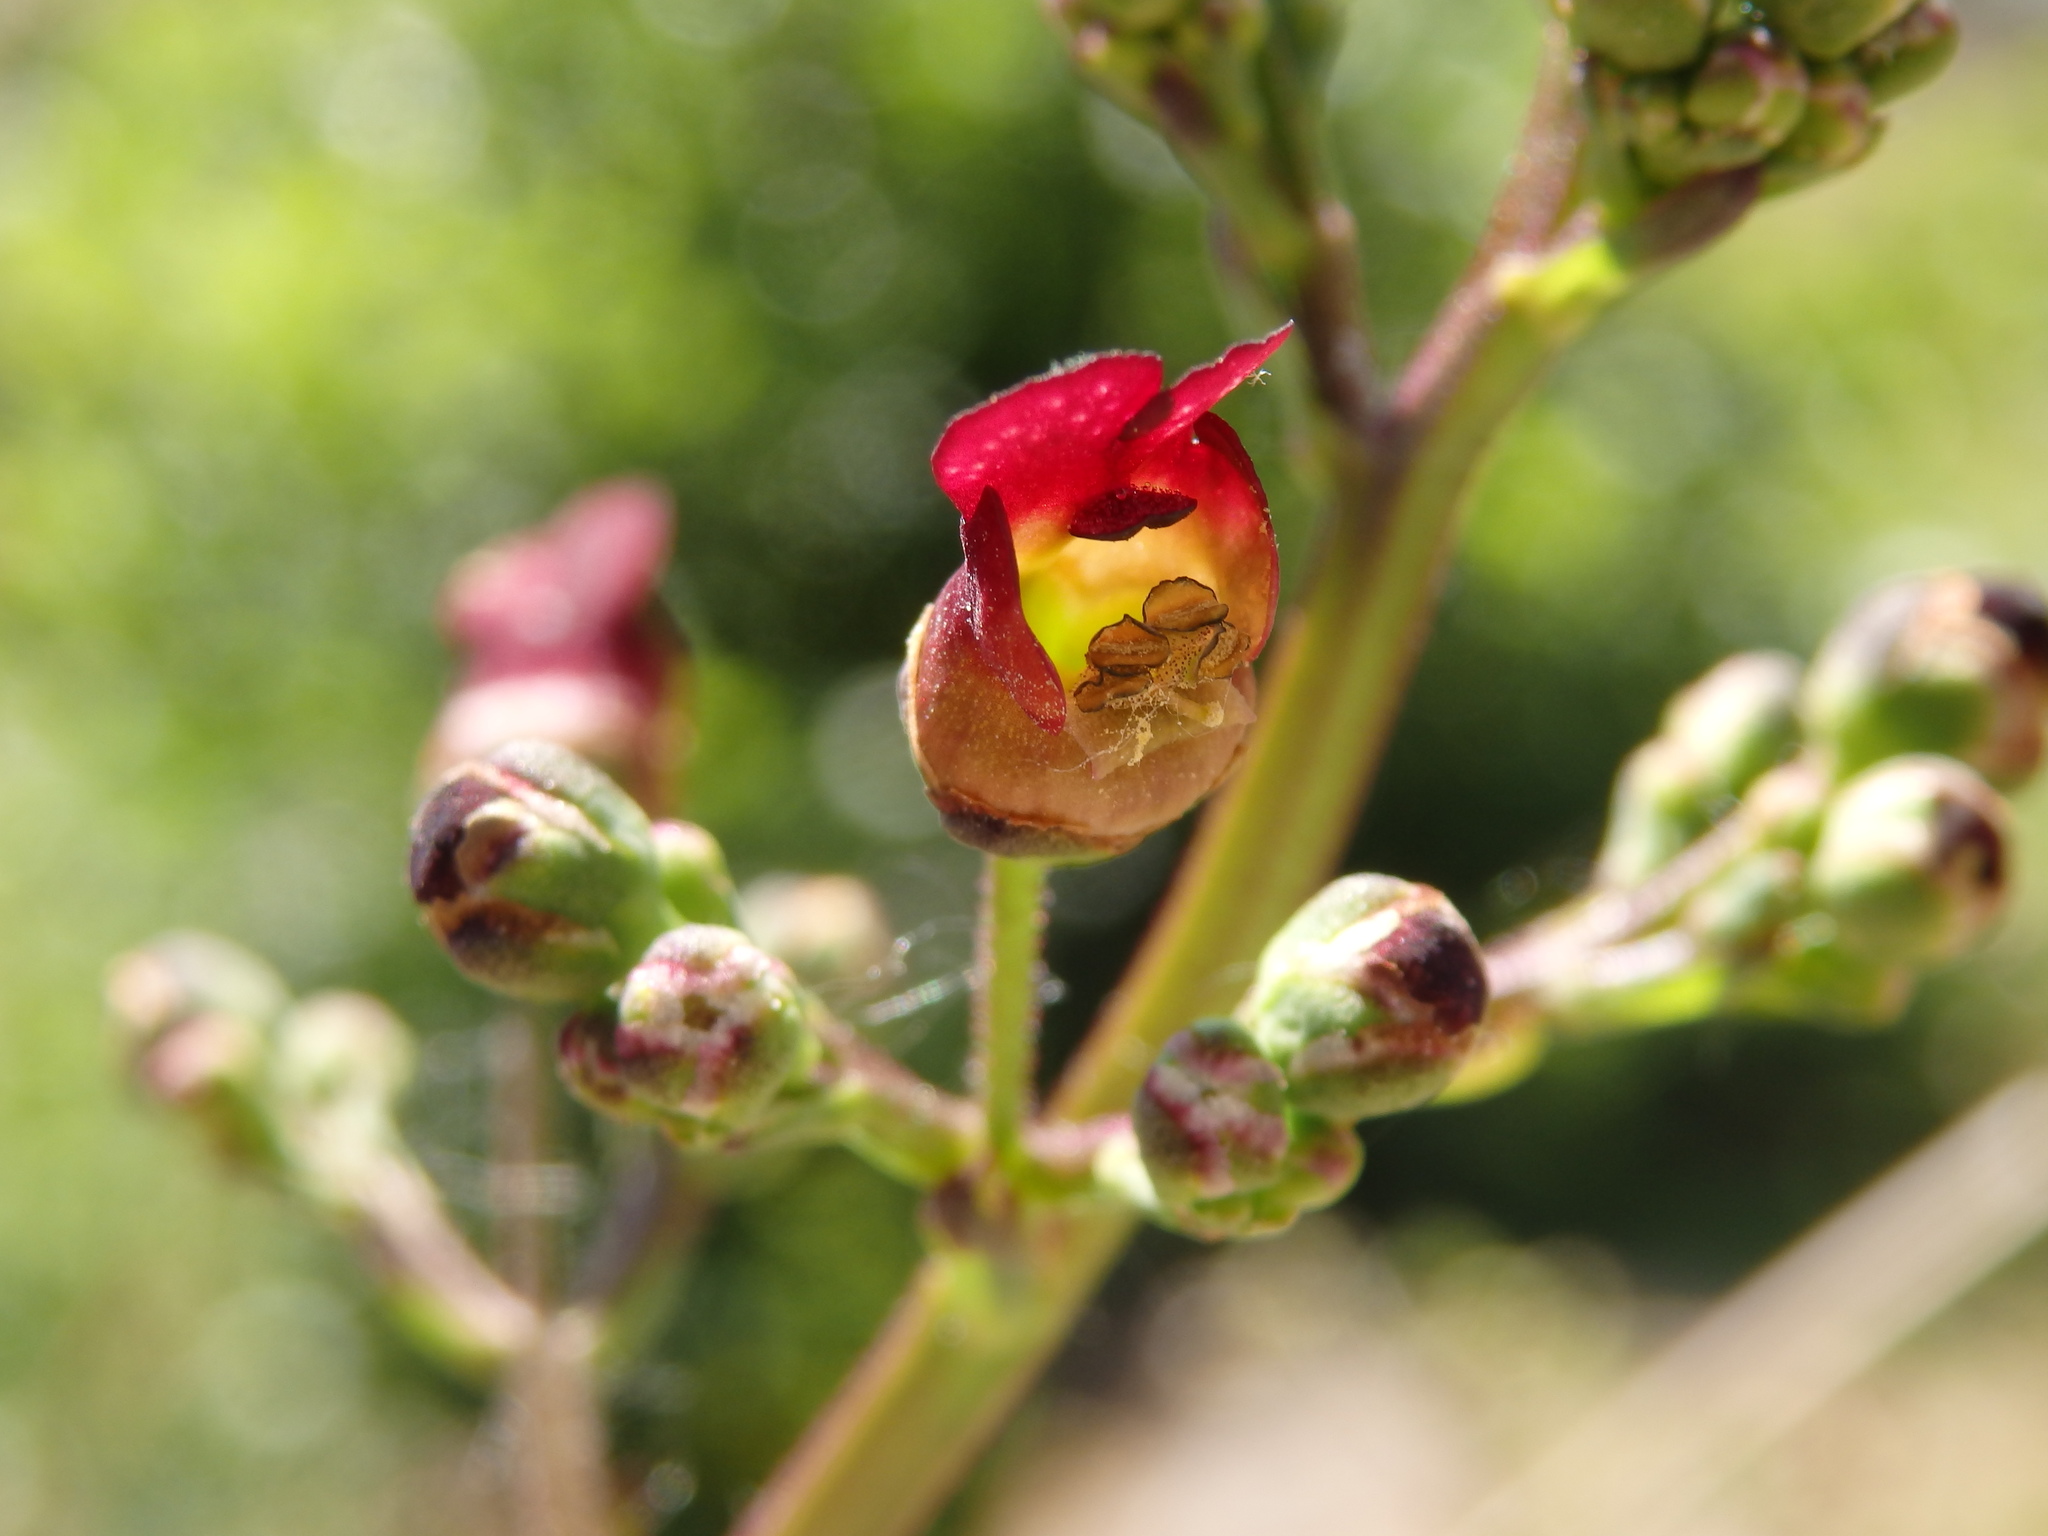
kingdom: Plantae
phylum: Tracheophyta
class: Magnoliopsida
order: Lamiales
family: Scrophulariaceae
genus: Scrophularia
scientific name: Scrophularia auriculata
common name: Water betony
